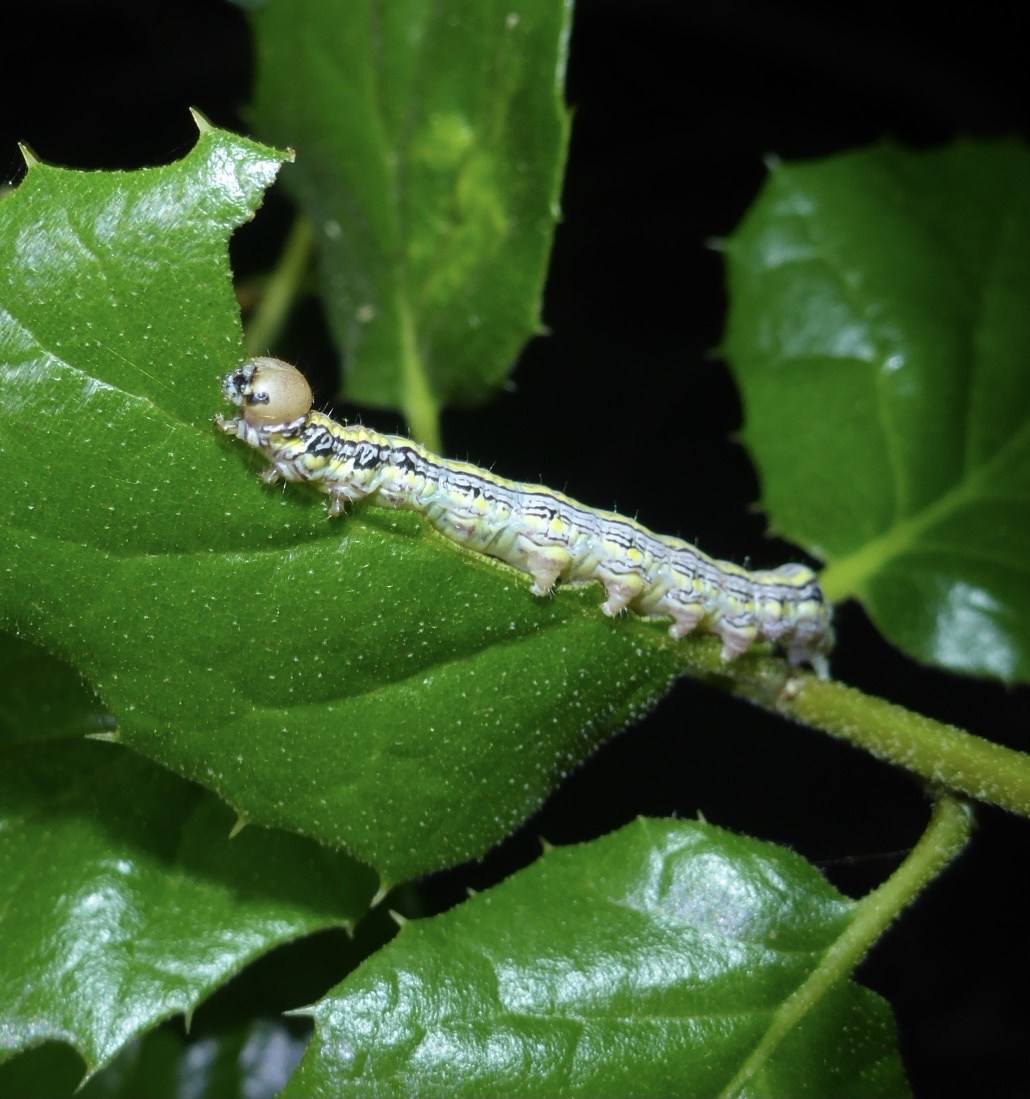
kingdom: Animalia
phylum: Arthropoda
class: Insecta
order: Lepidoptera
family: Notodontidae
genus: Phryganidia
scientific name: Phryganidia californica
